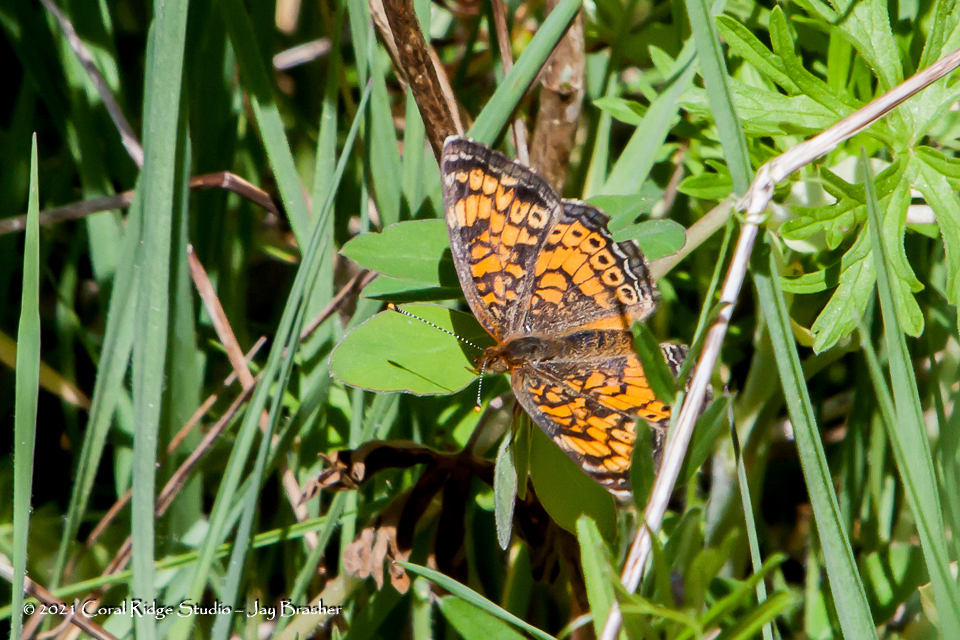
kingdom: Animalia
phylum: Arthropoda
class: Insecta
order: Lepidoptera
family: Nymphalidae
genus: Phyciodes
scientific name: Phyciodes tharos
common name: Pearl crescent
